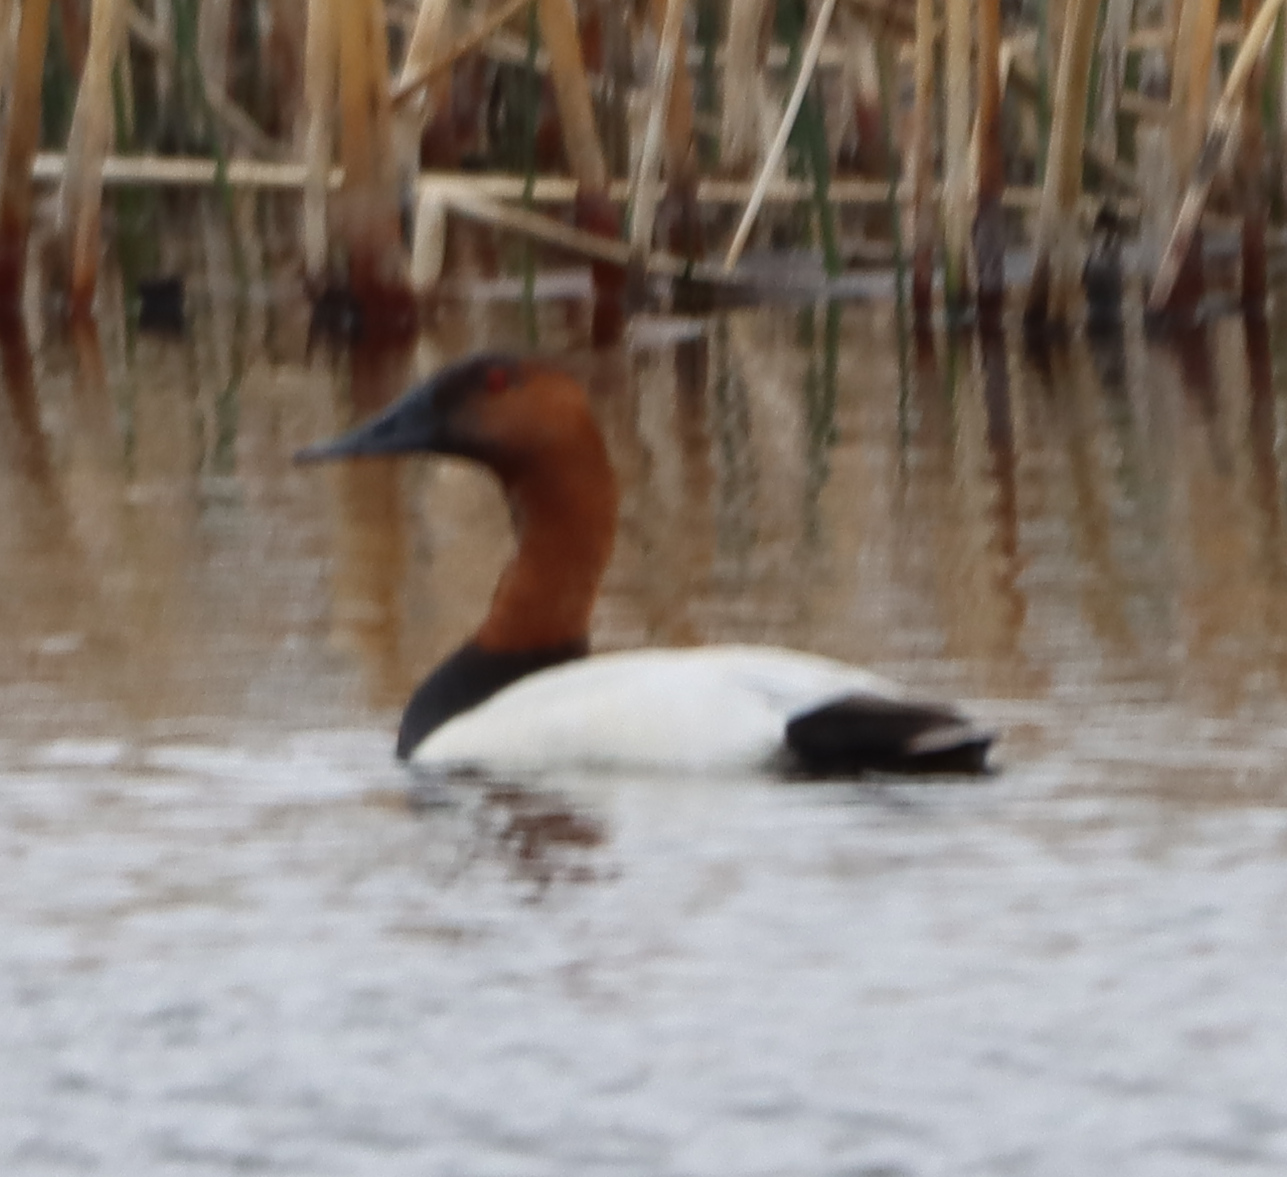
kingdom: Animalia
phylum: Chordata
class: Aves
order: Anseriformes
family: Anatidae
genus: Aythya
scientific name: Aythya valisineria
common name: Canvasback
